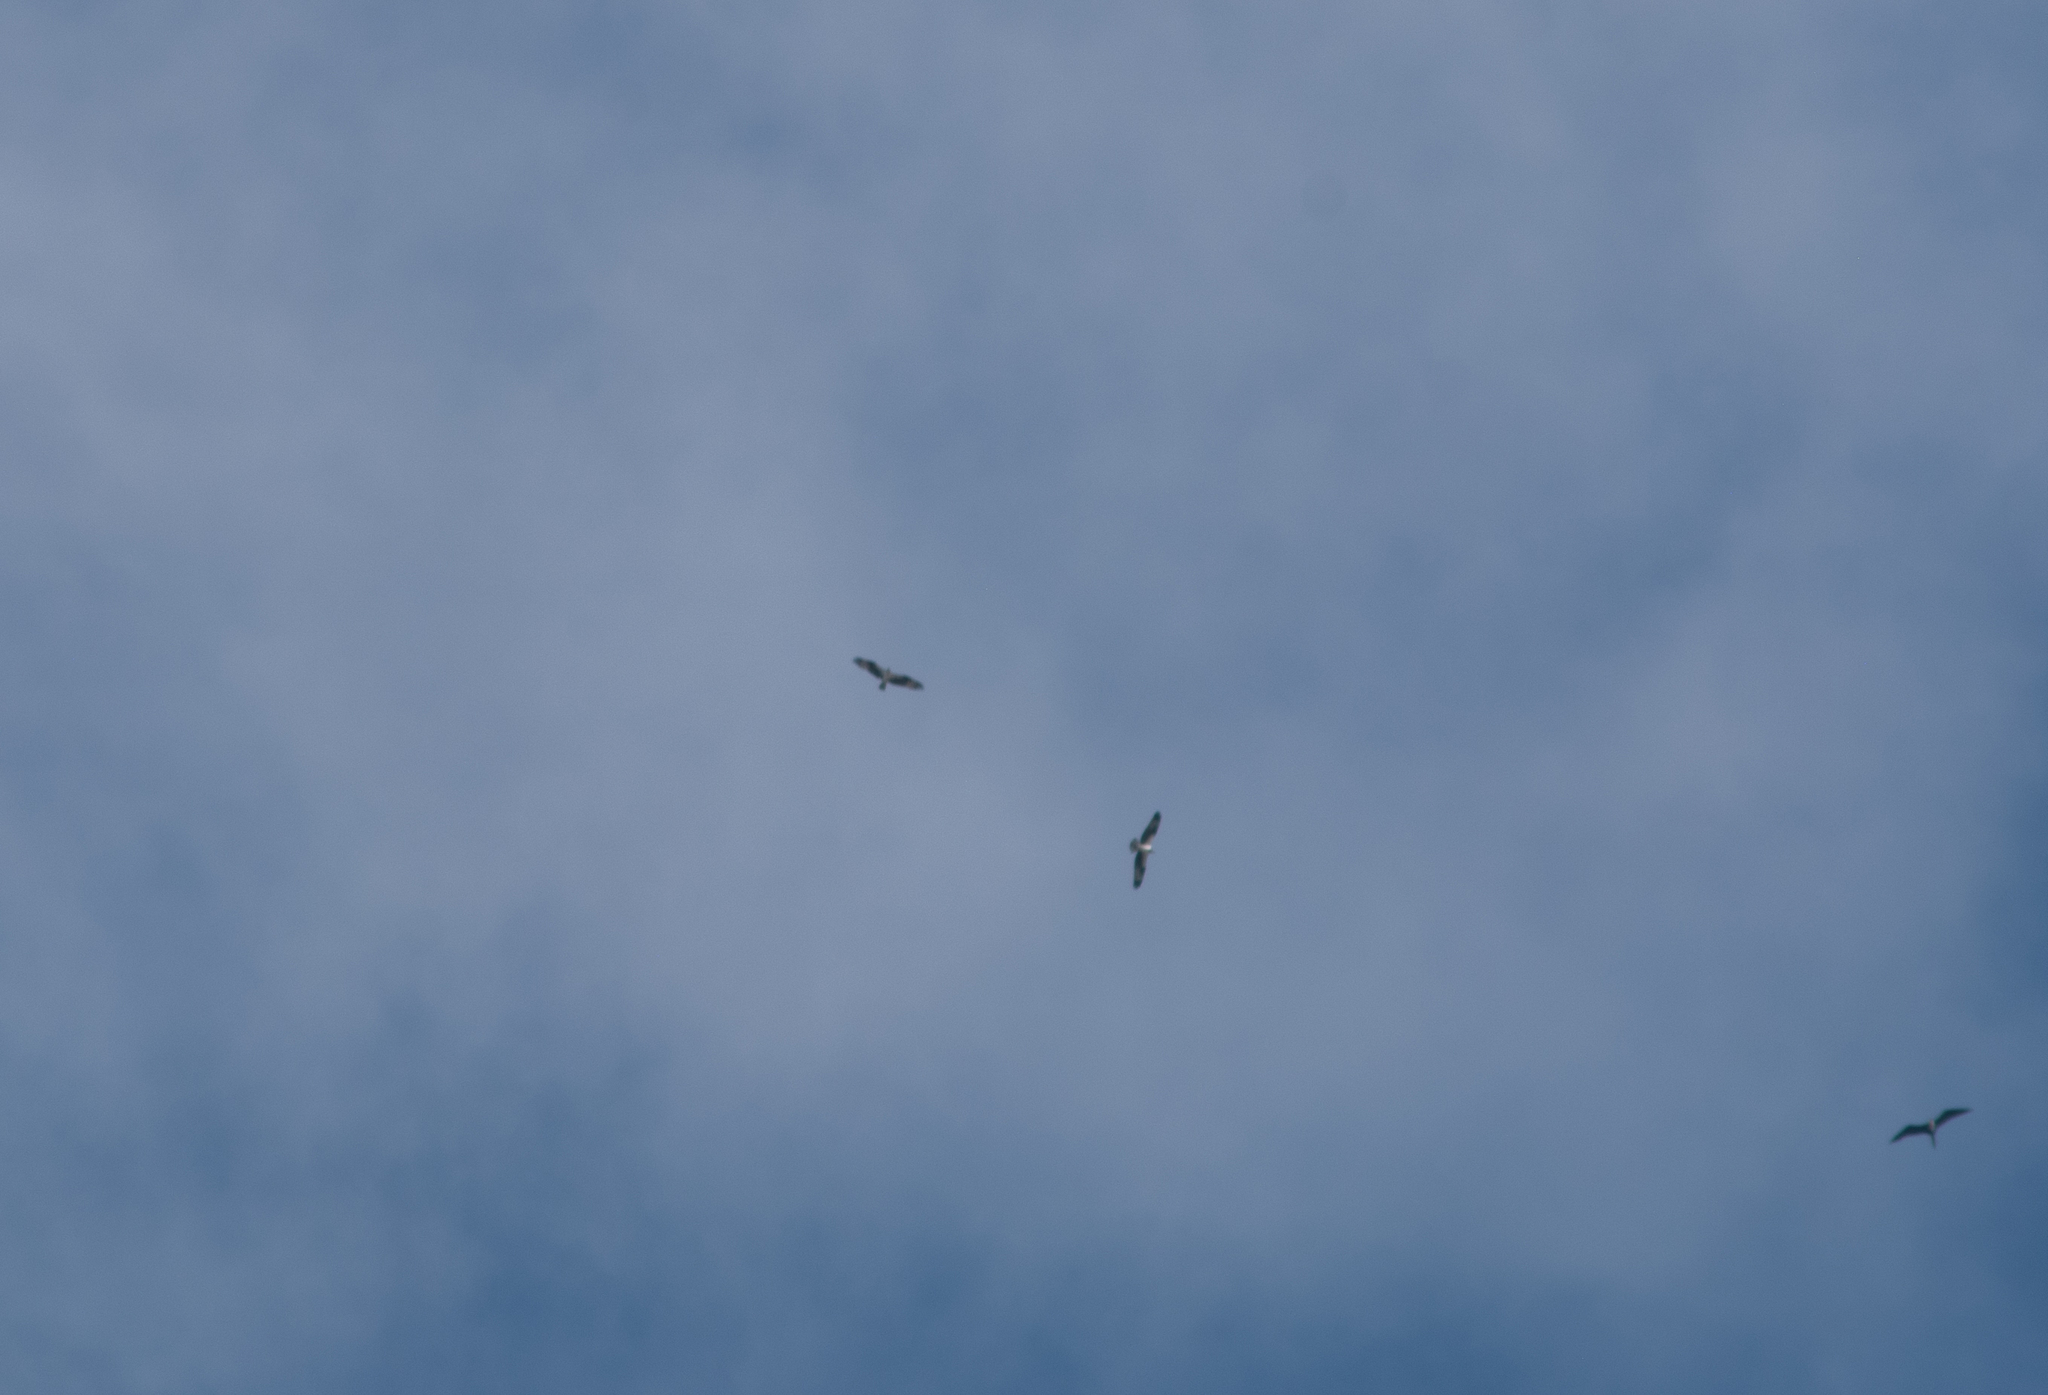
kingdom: Animalia
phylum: Chordata
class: Aves
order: Accipitriformes
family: Pandionidae
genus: Pandion
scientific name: Pandion haliaetus
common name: Osprey
